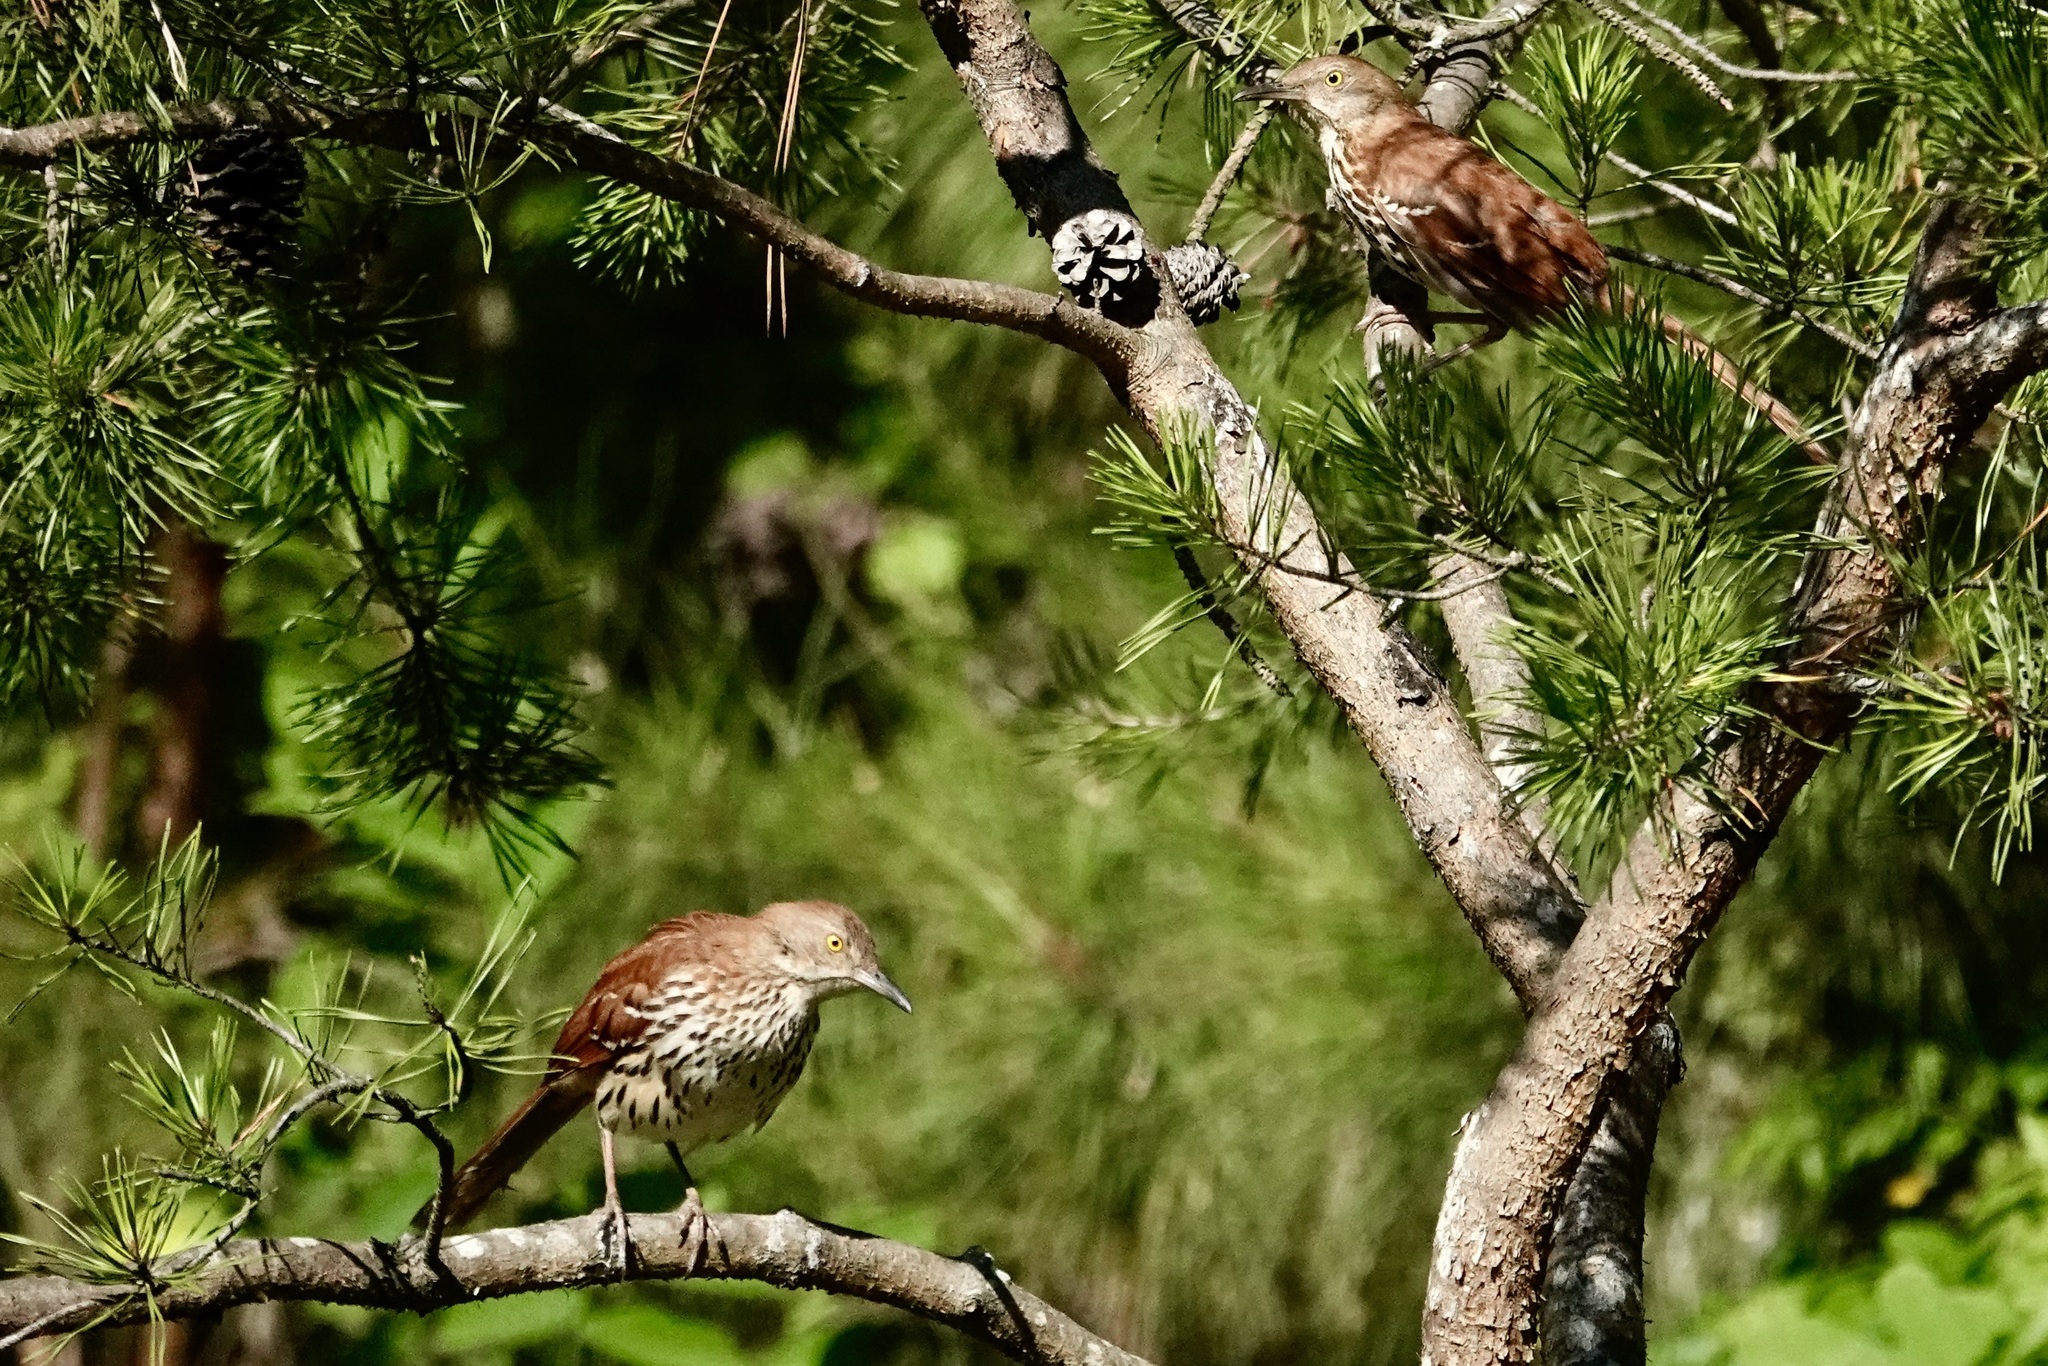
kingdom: Animalia
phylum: Chordata
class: Aves
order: Passeriformes
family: Mimidae
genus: Toxostoma
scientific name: Toxostoma rufum
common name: Brown thrasher
